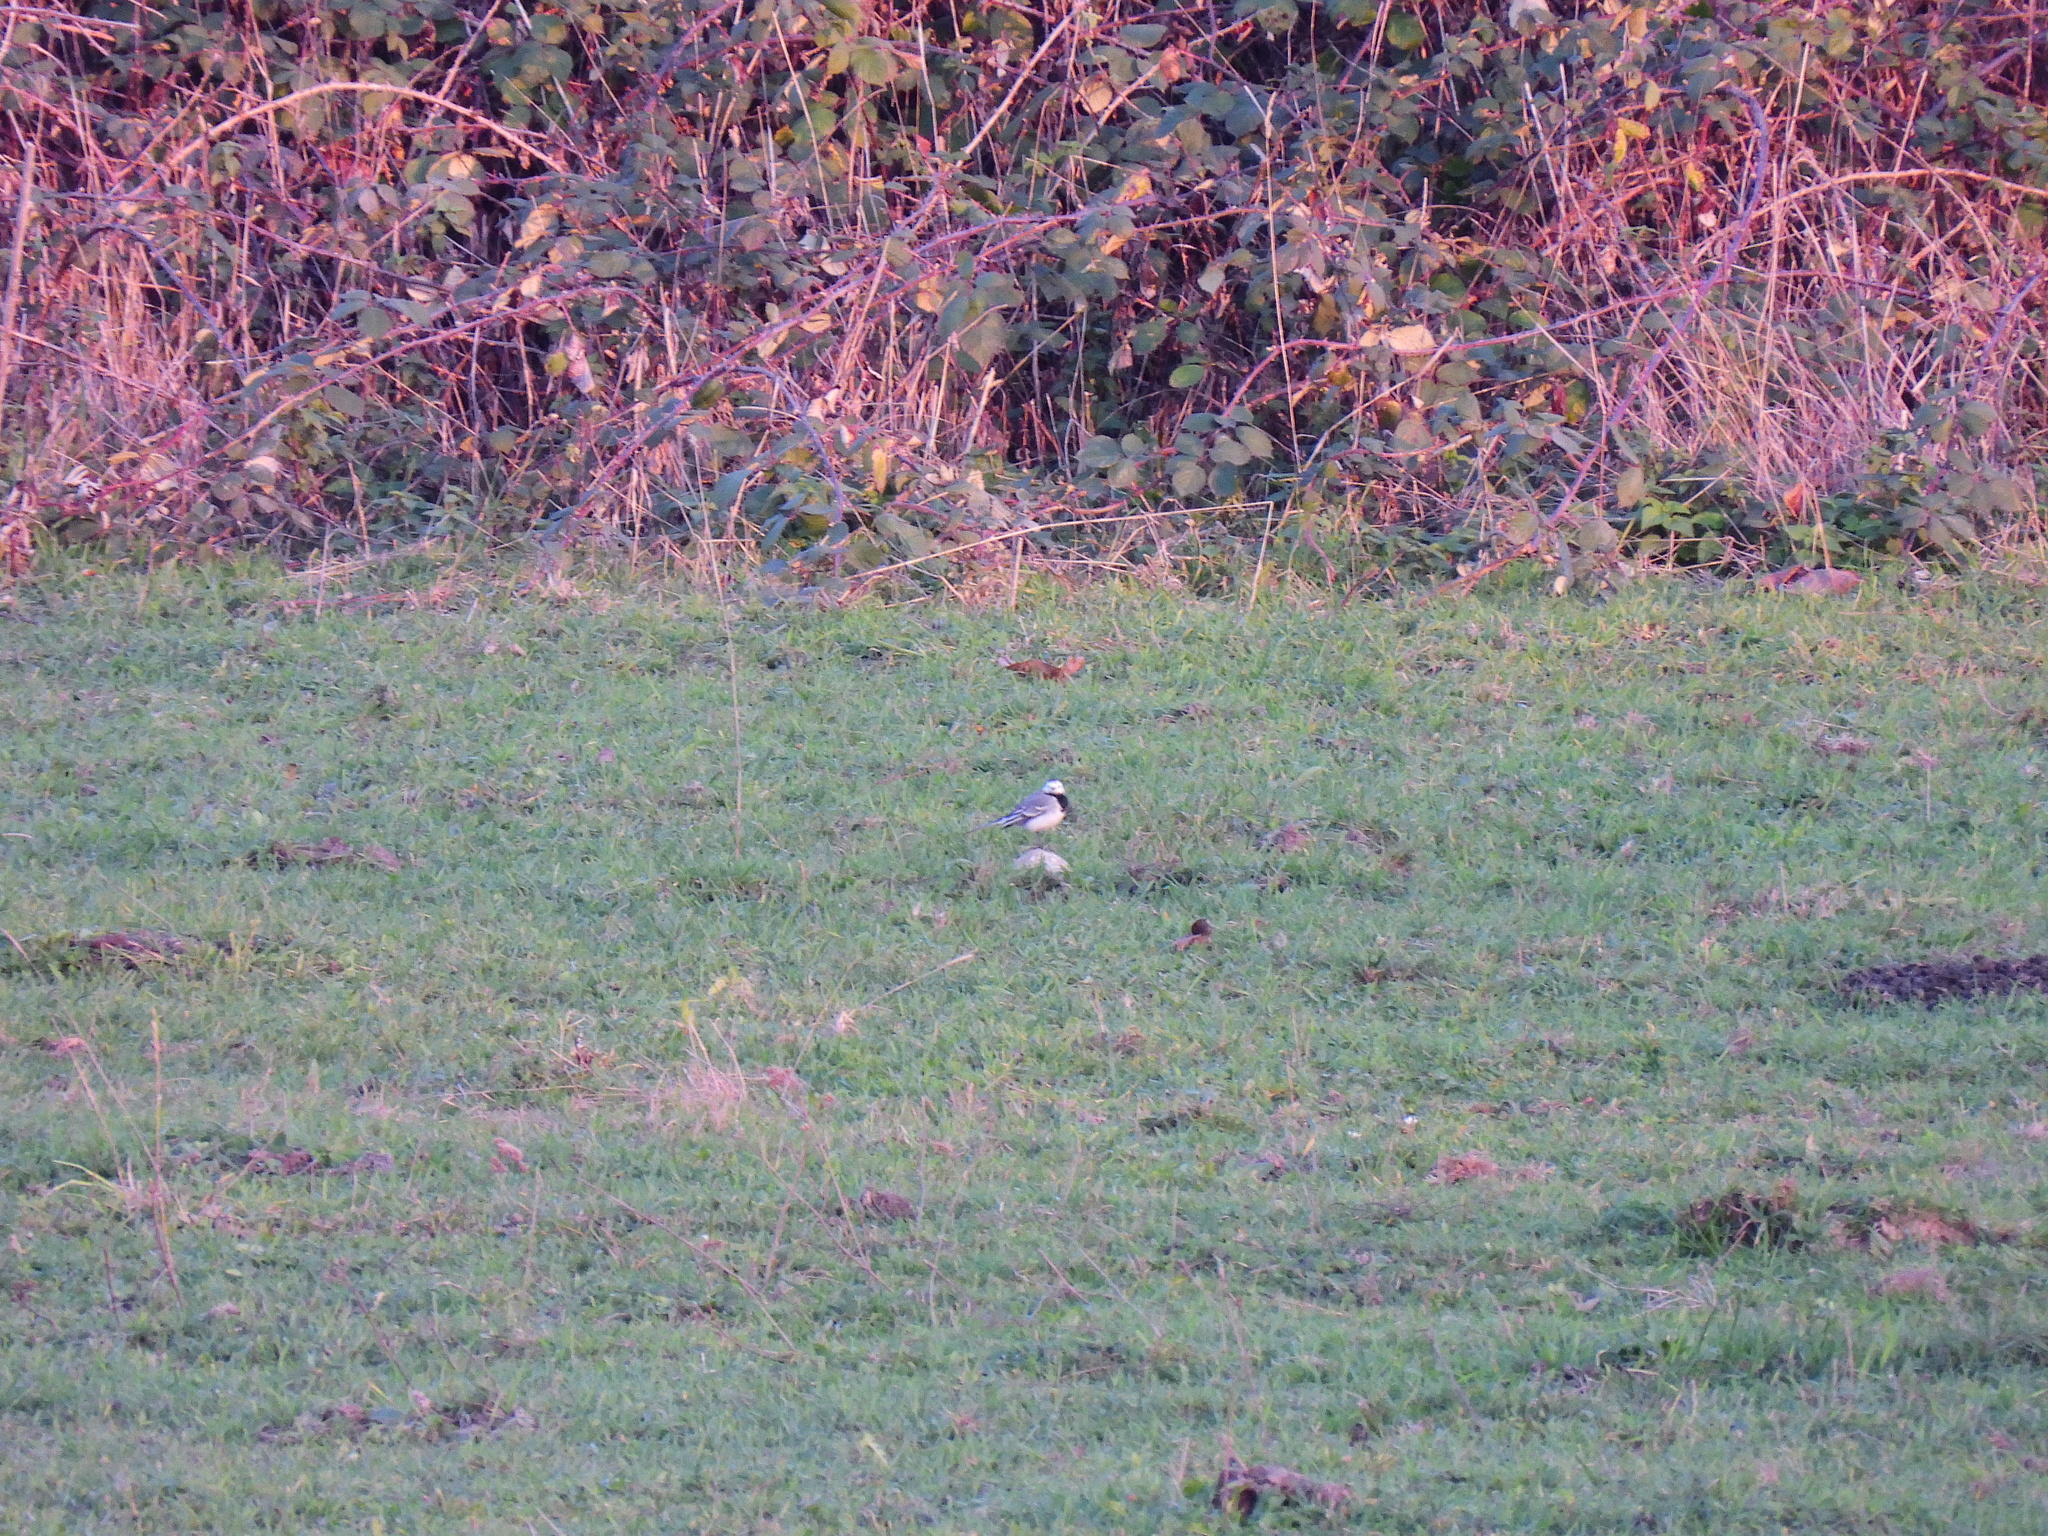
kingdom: Animalia
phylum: Chordata
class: Aves
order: Passeriformes
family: Motacillidae
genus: Motacilla
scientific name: Motacilla alba
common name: White wagtail
